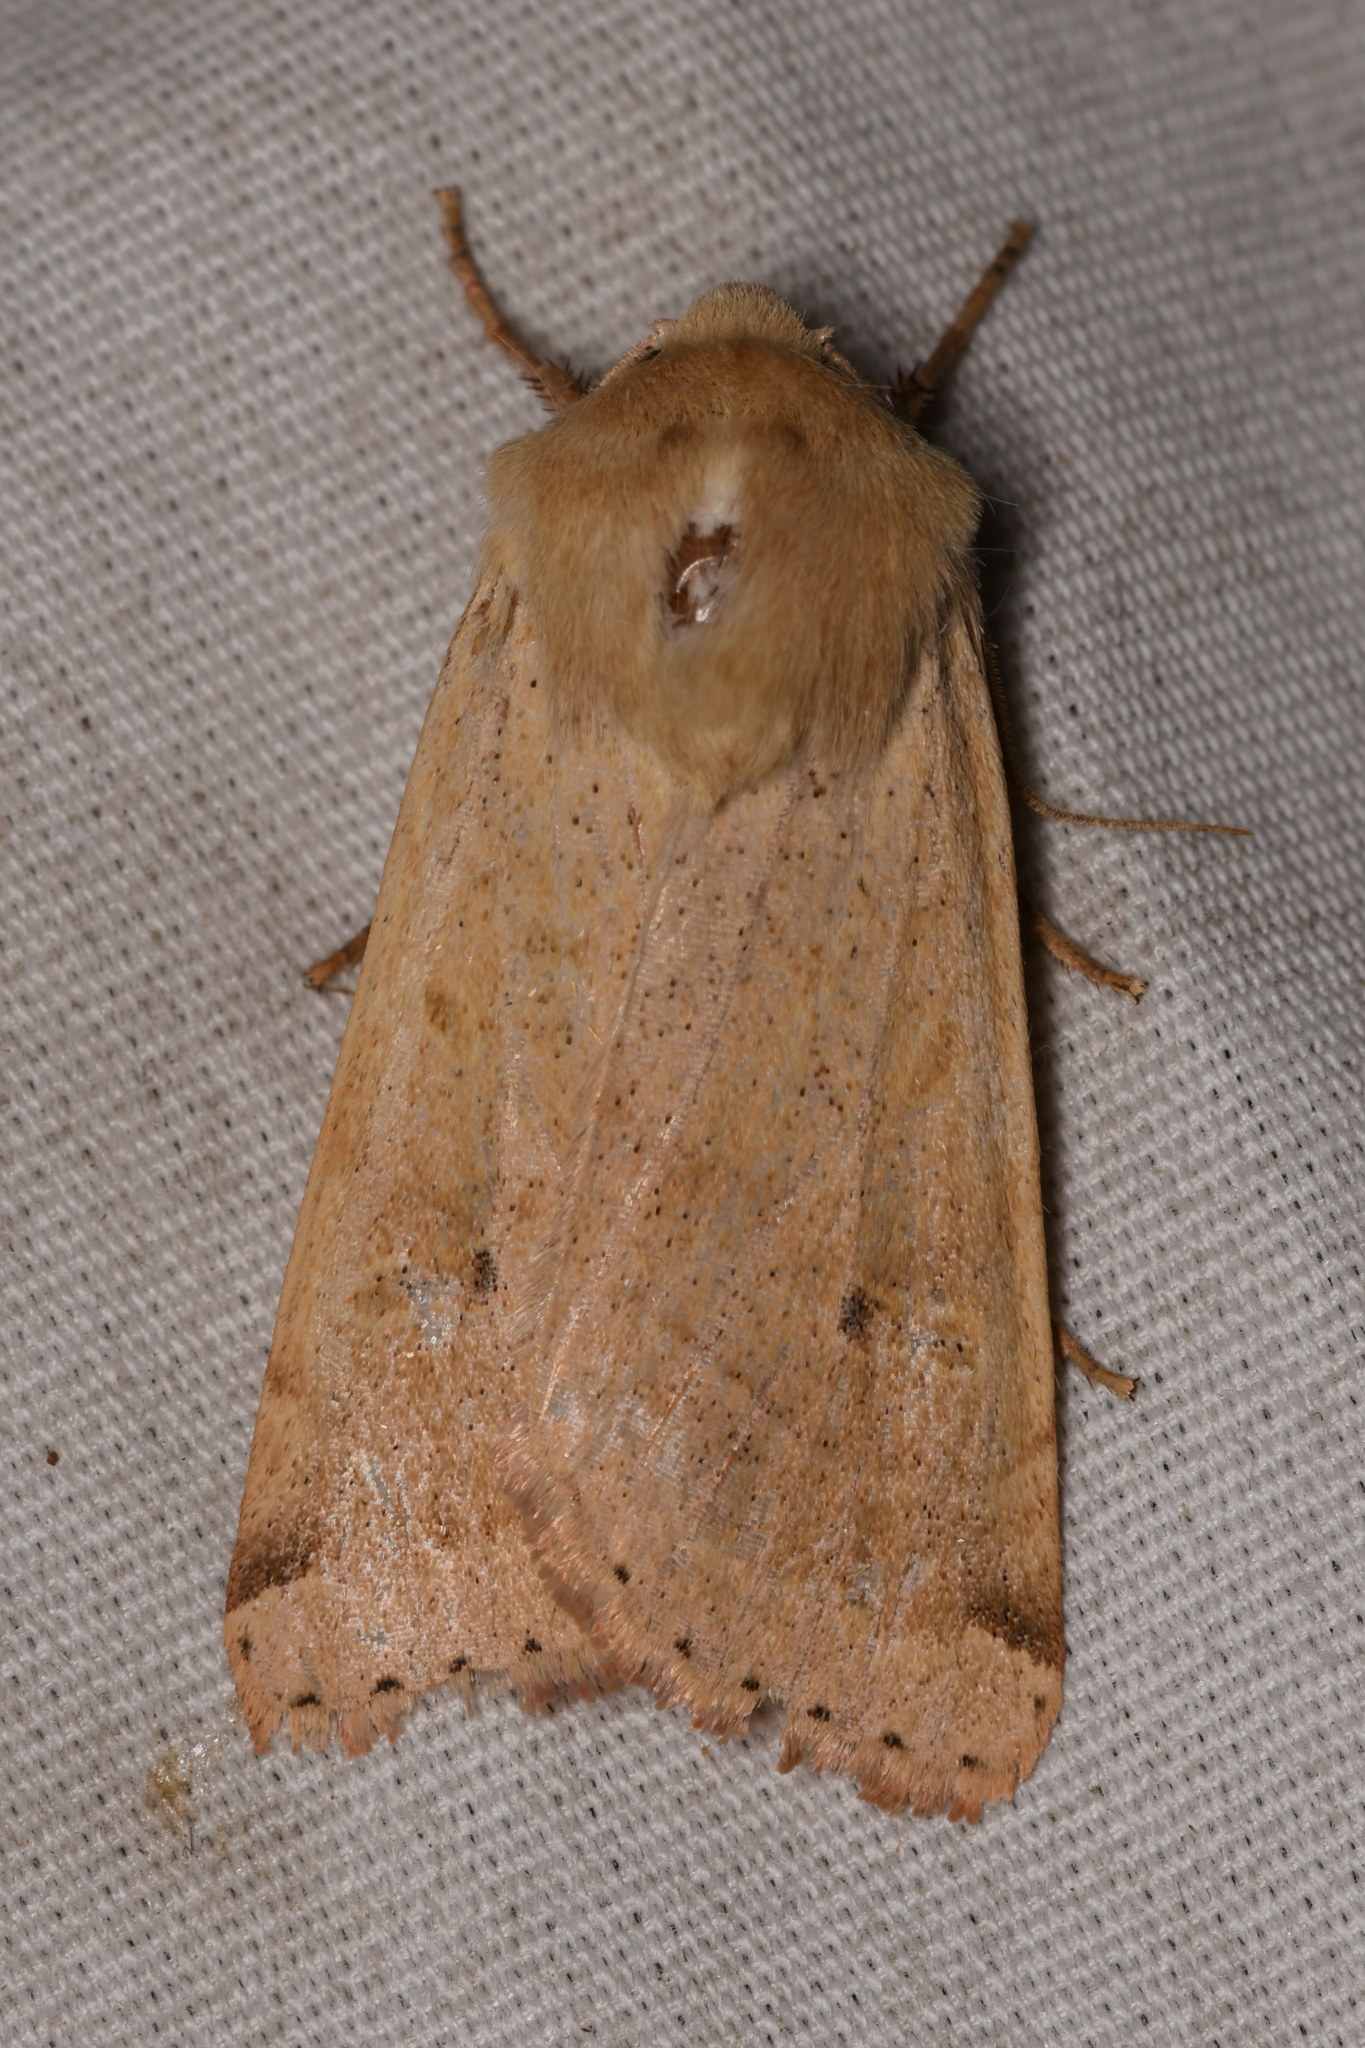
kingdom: Animalia
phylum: Arthropoda
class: Insecta
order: Lepidoptera
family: Noctuidae
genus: Dichagyris
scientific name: Dichagyris variabilis
